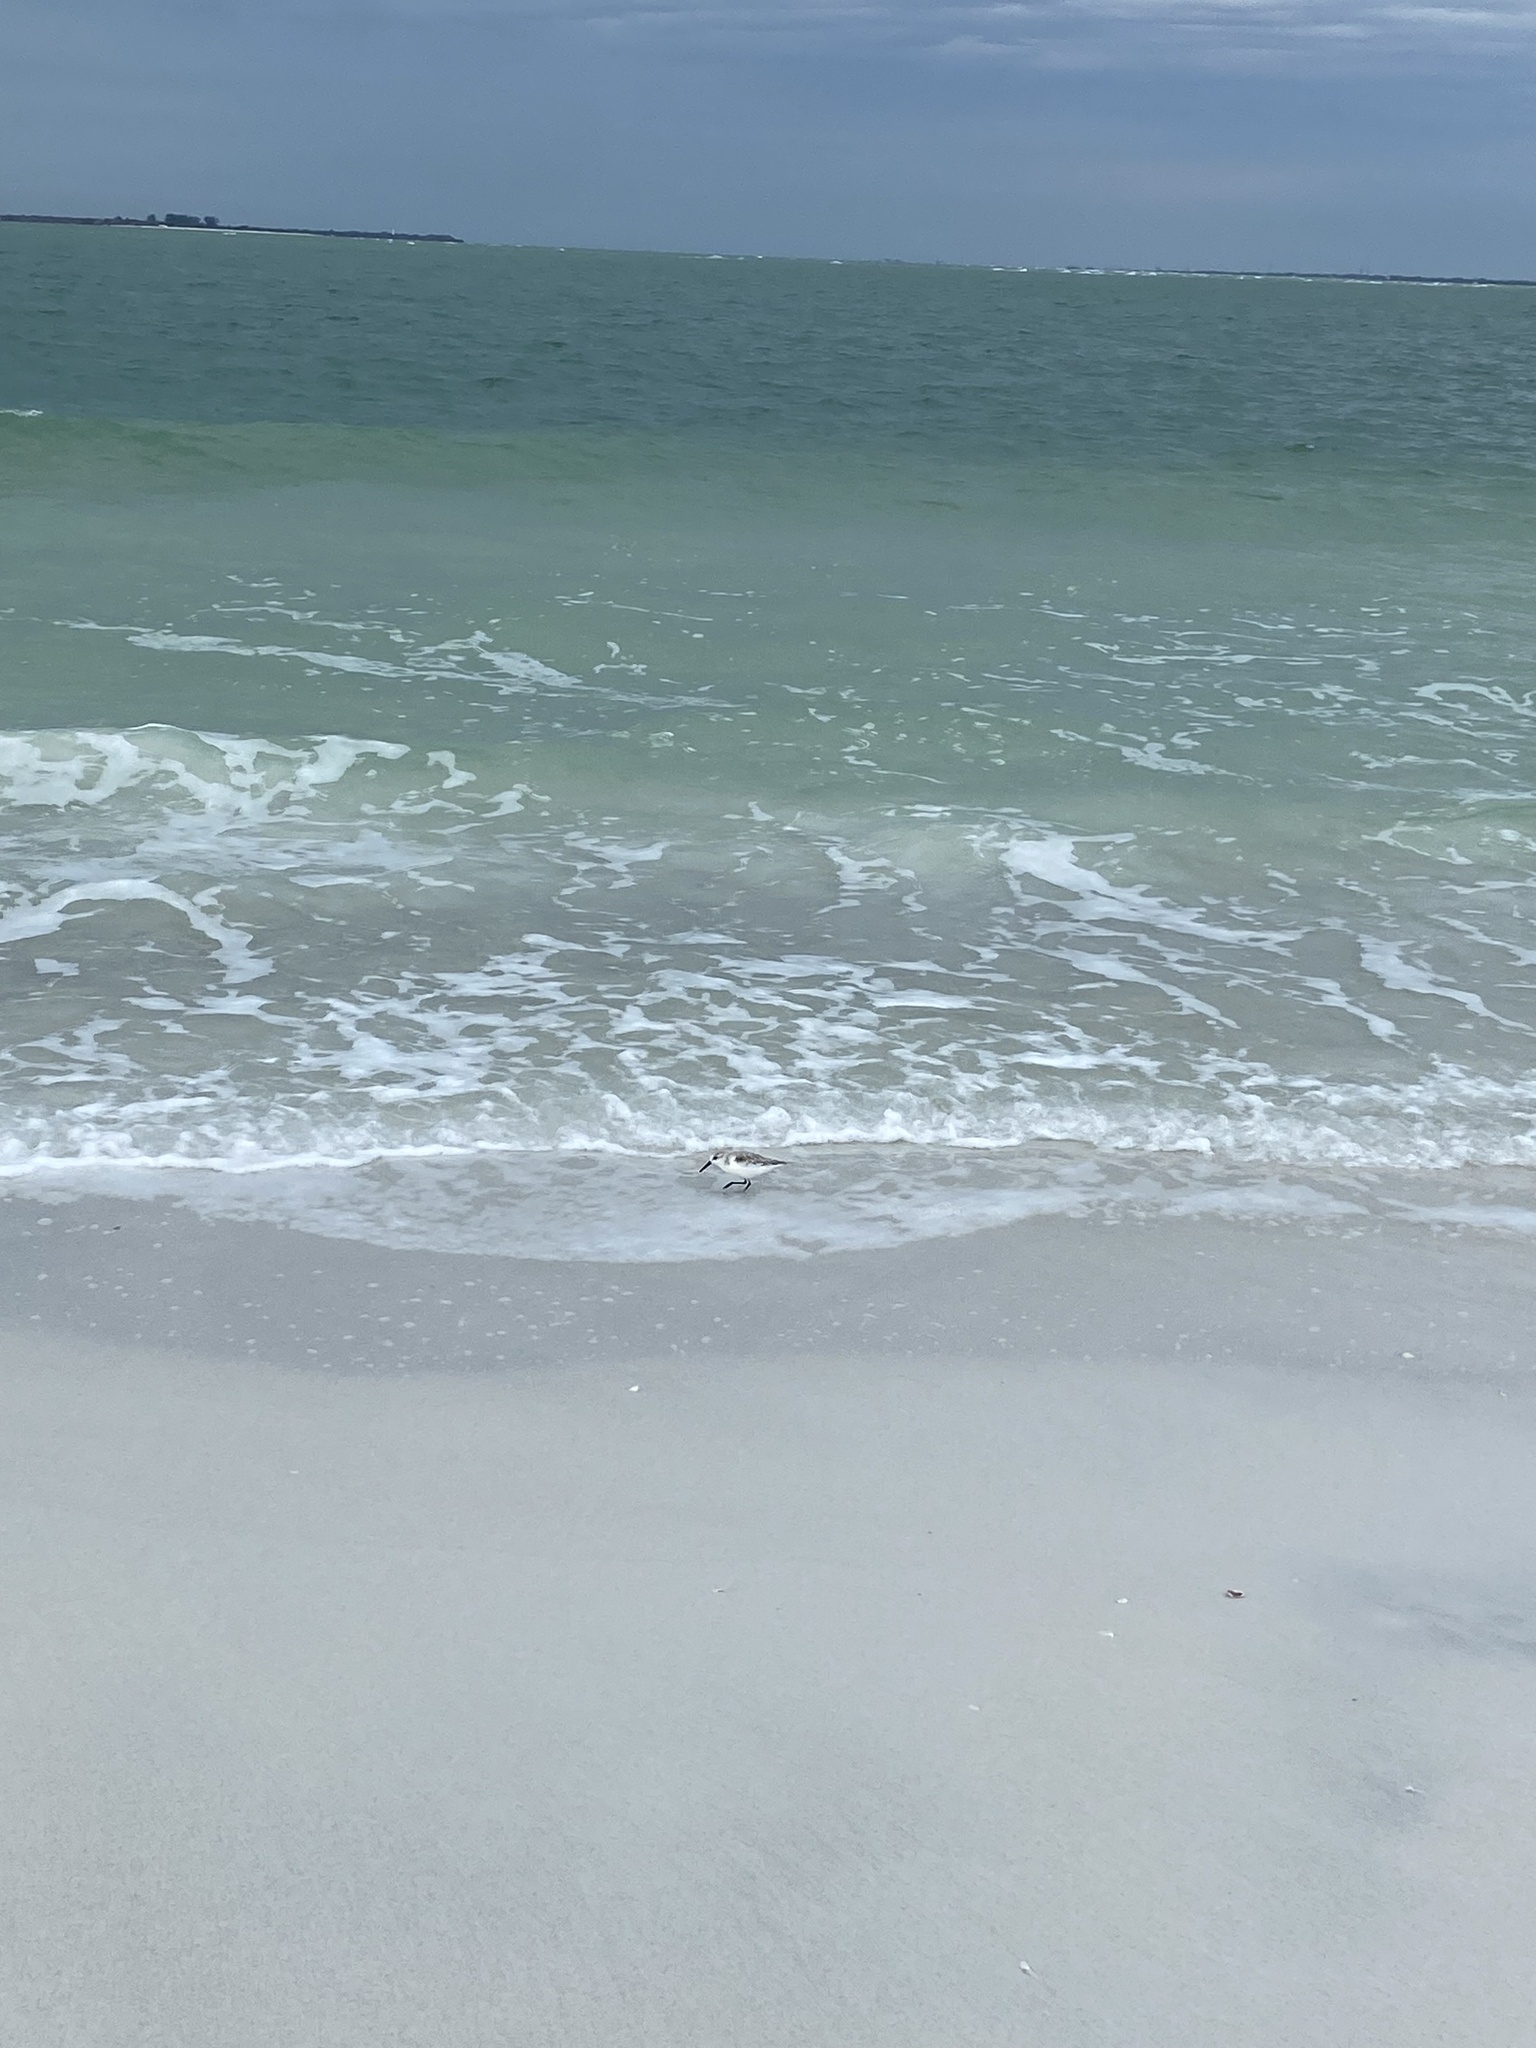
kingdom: Animalia
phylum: Chordata
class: Aves
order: Charadriiformes
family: Scolopacidae
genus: Calidris
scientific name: Calidris alba
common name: Sanderling
